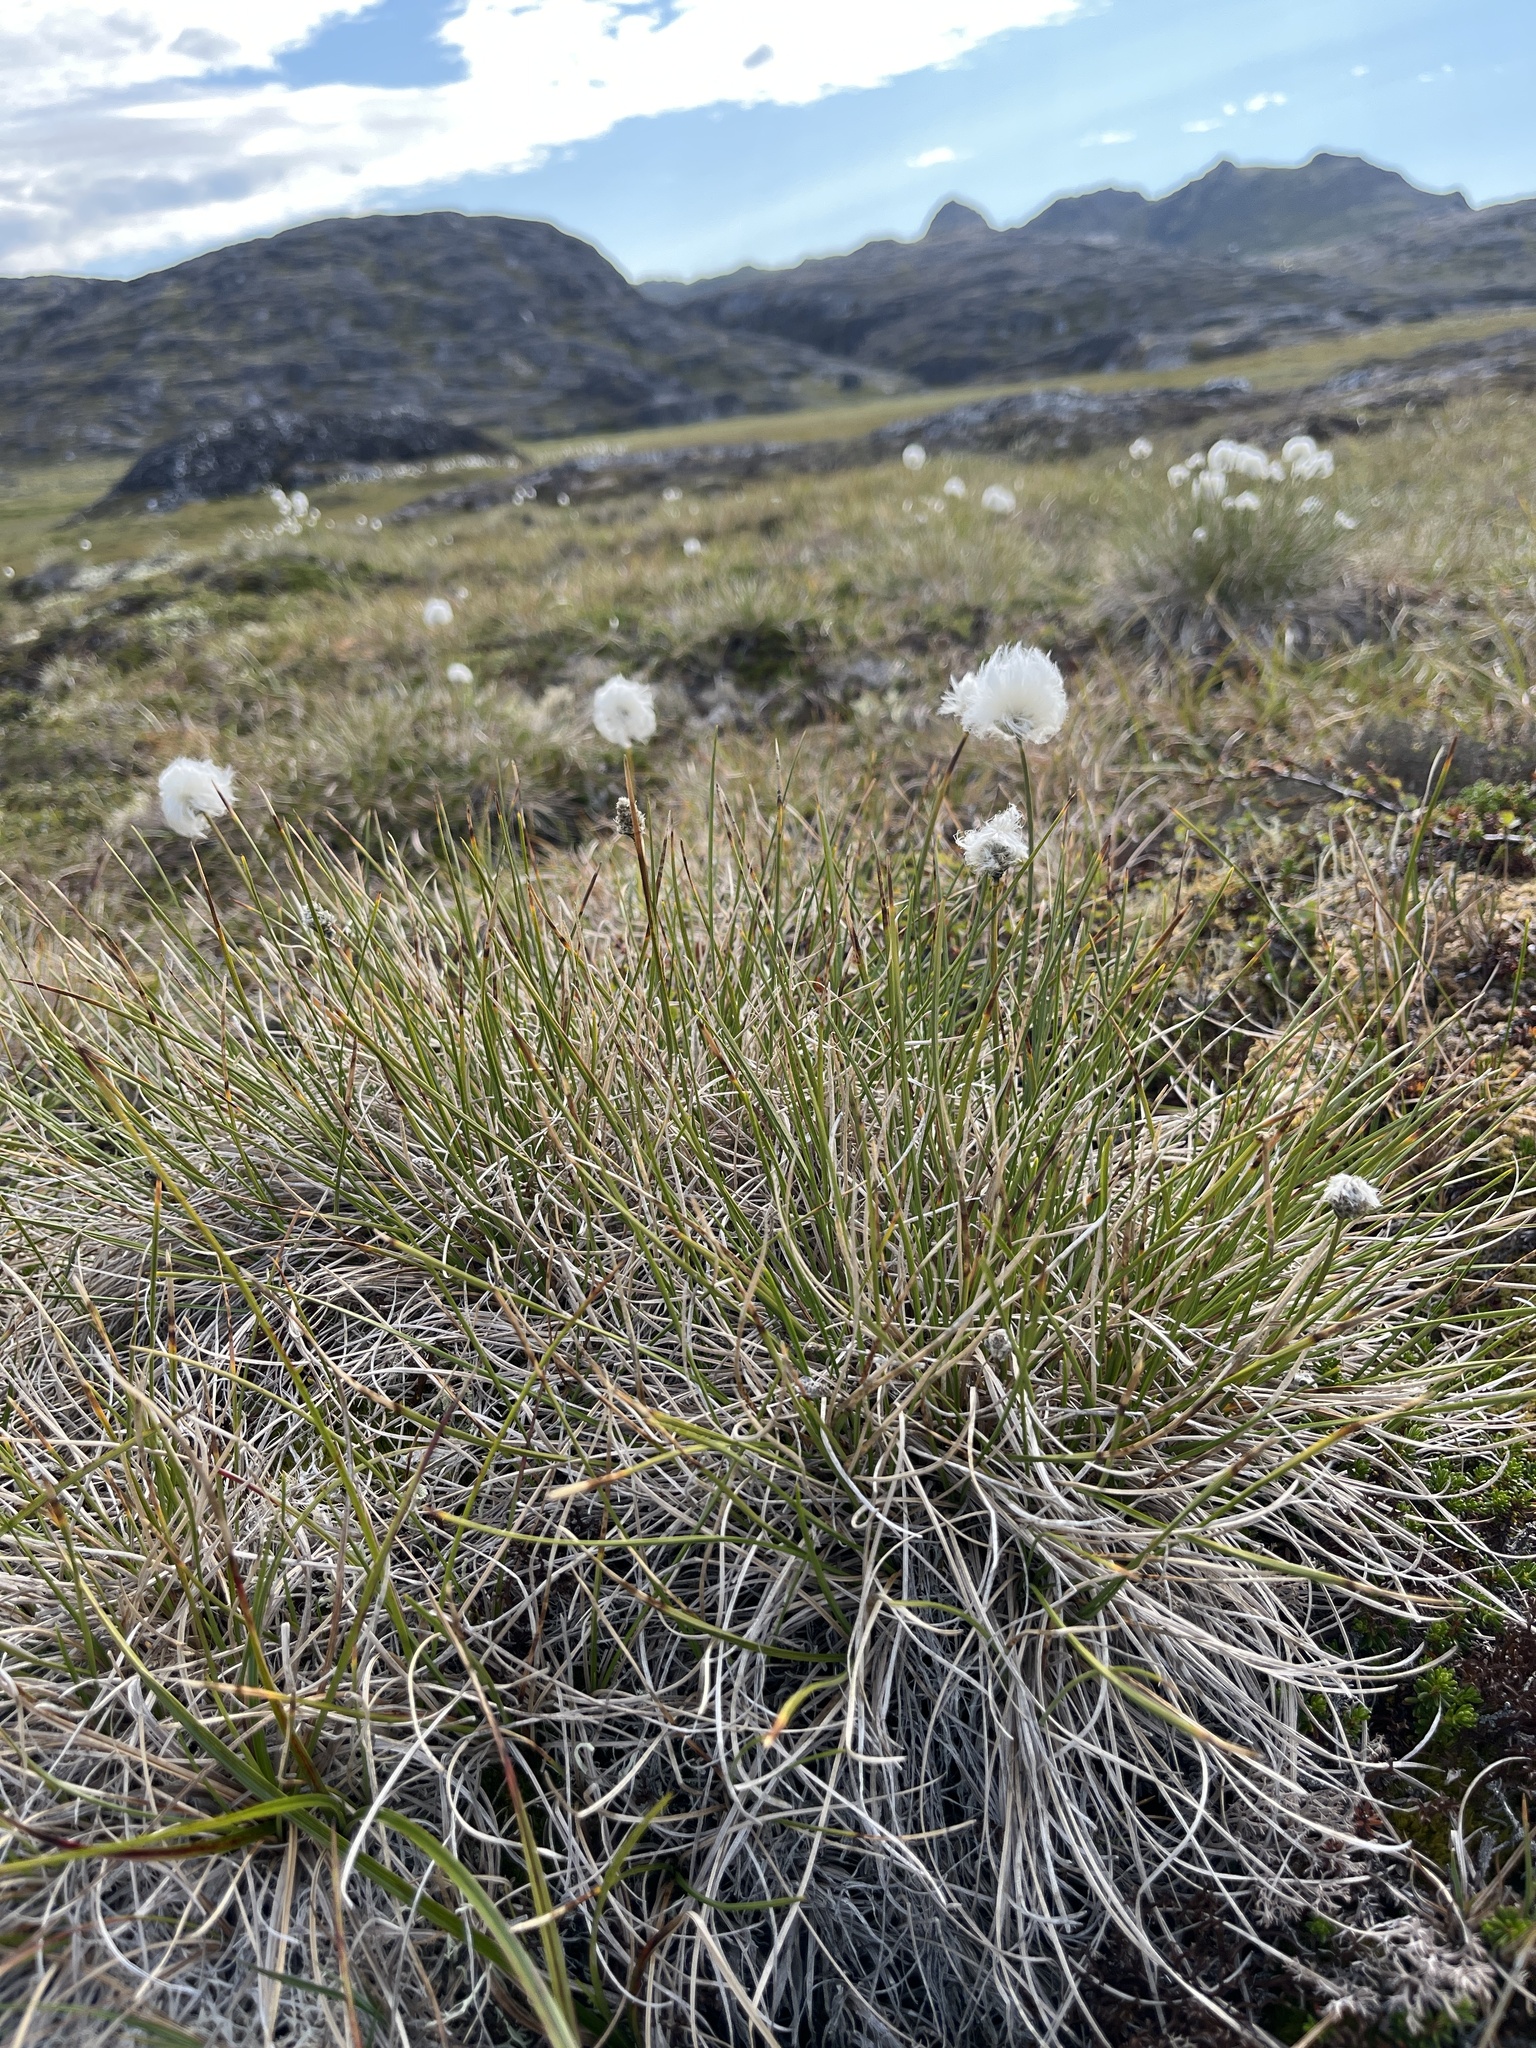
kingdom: Plantae
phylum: Tracheophyta
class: Liliopsida
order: Poales
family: Cyperaceae
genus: Eriophorum
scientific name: Eriophorum vaginatum
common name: Hare's-tail cottongrass
